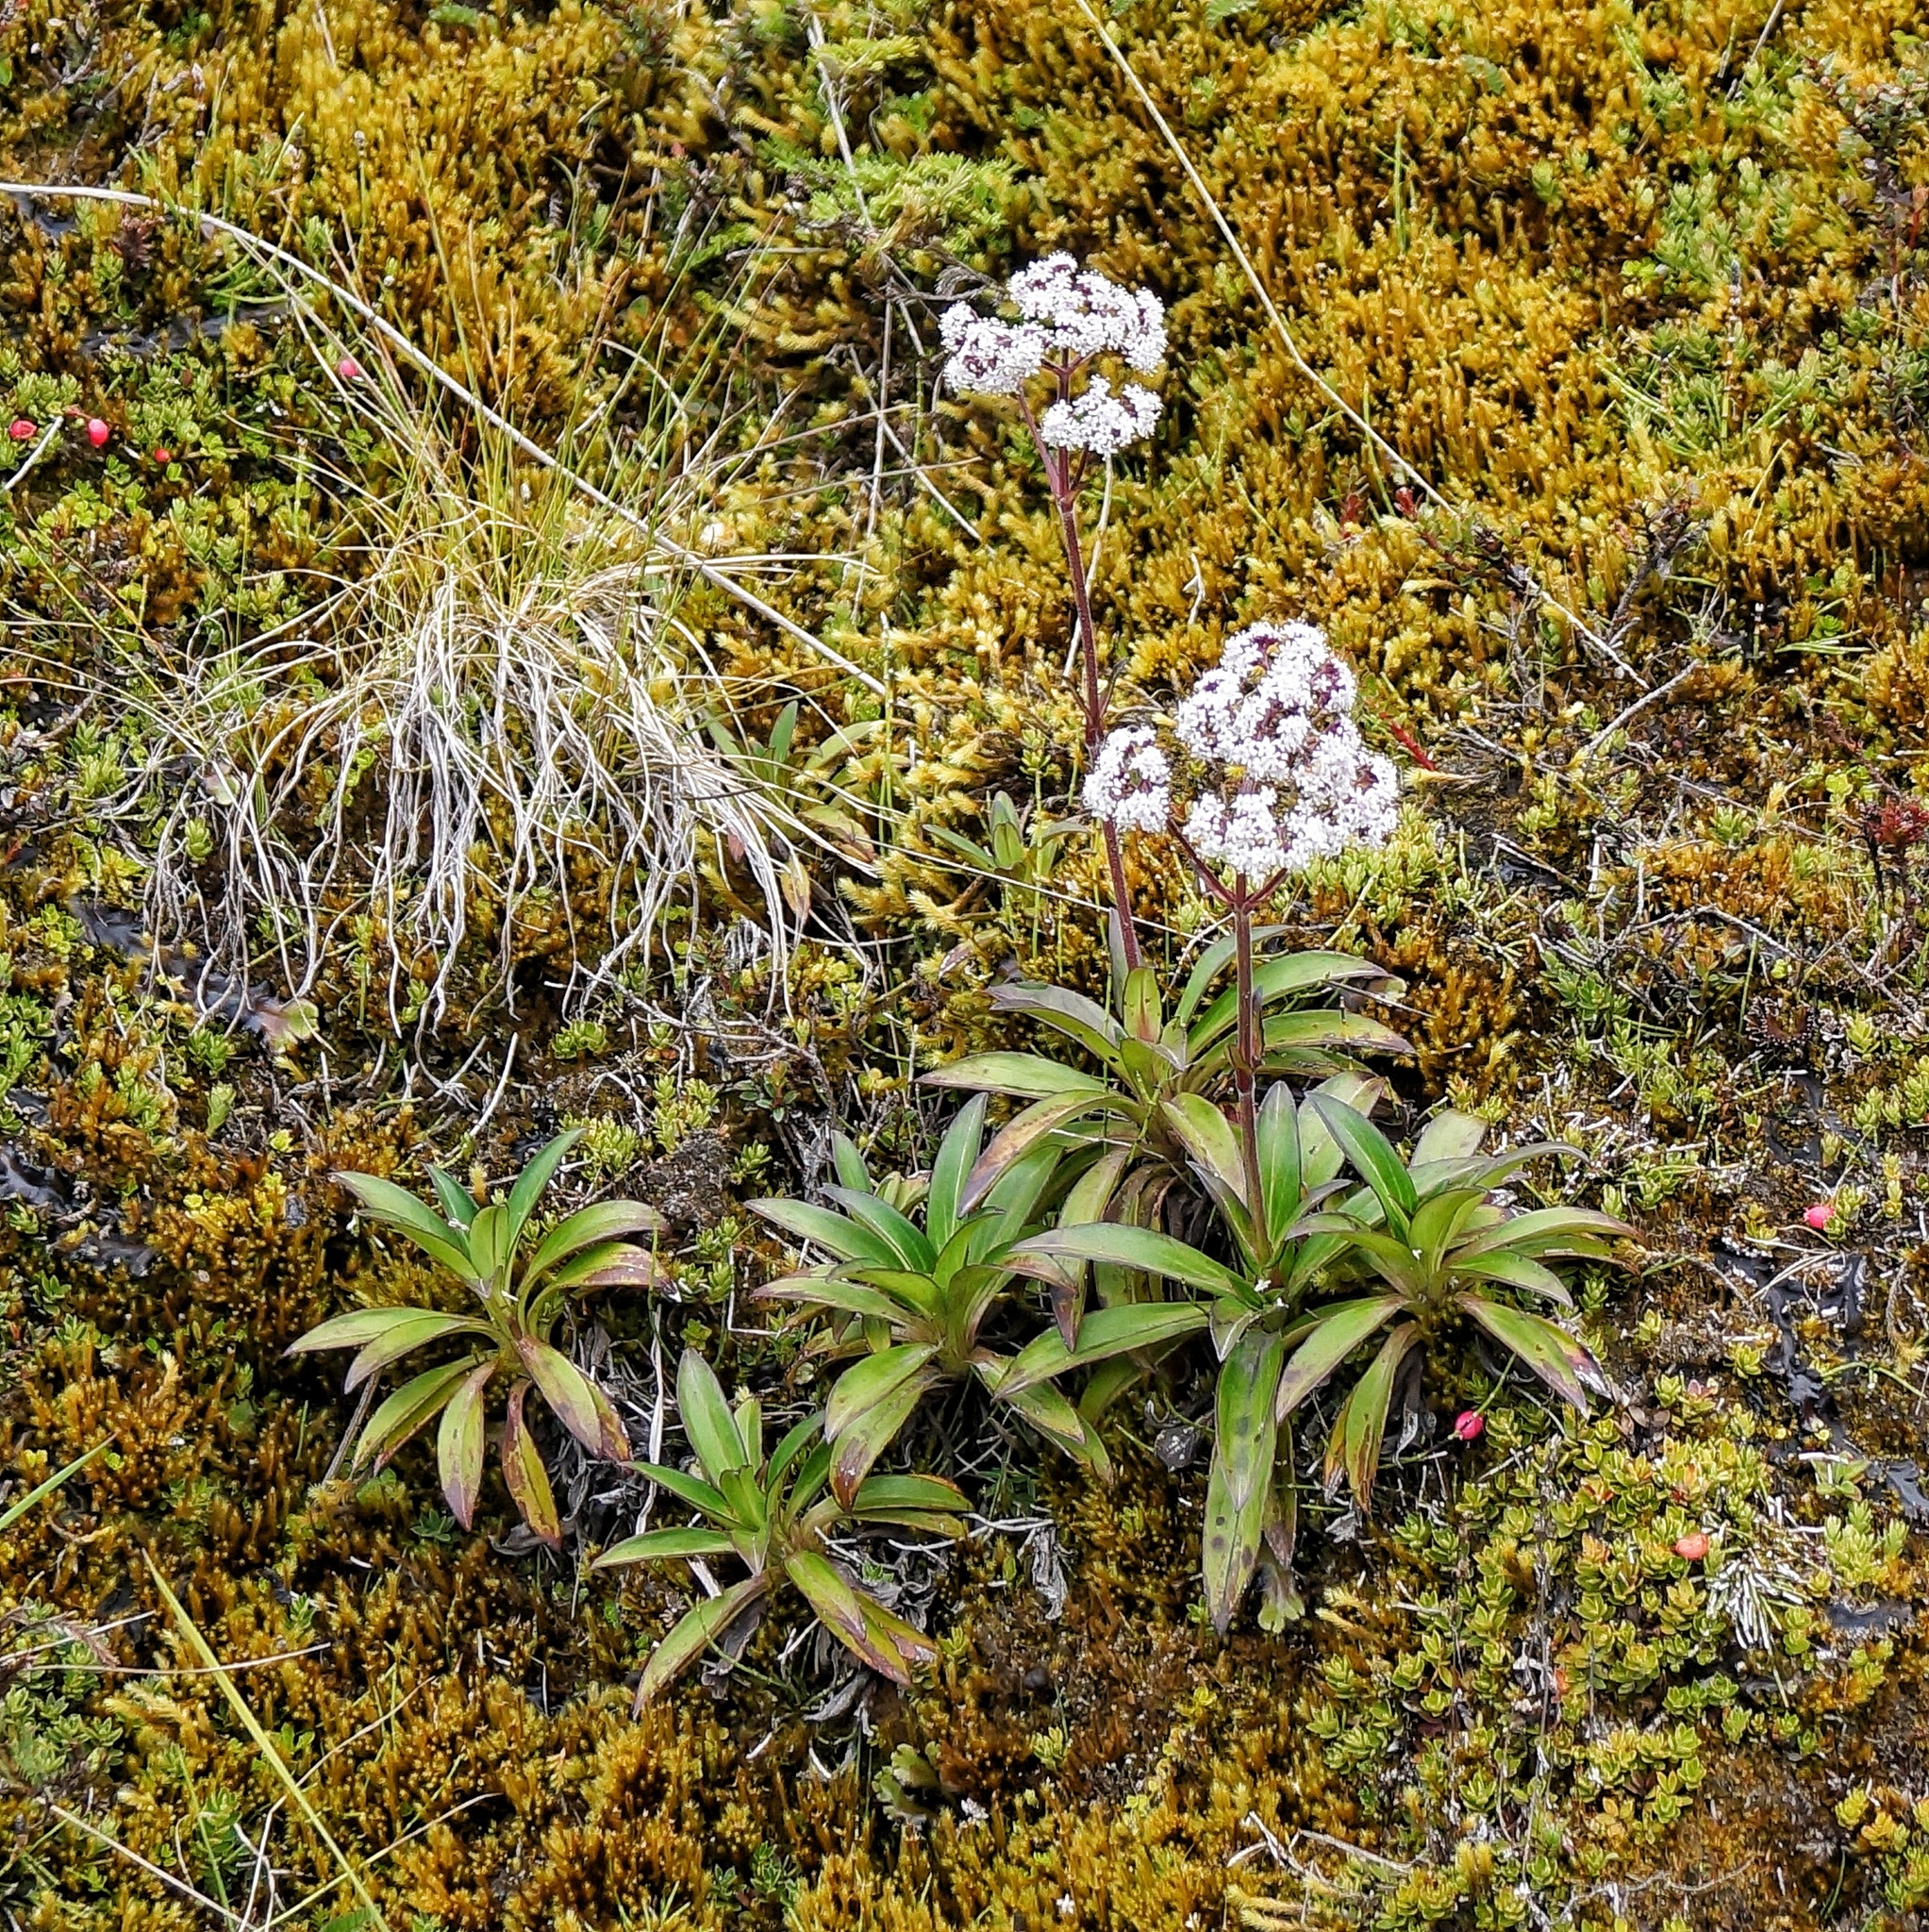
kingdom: Plantae
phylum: Tracheophyta
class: Magnoliopsida
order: Dipsacales
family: Caprifoliaceae
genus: Valeriana
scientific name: Valeriana pilosa
